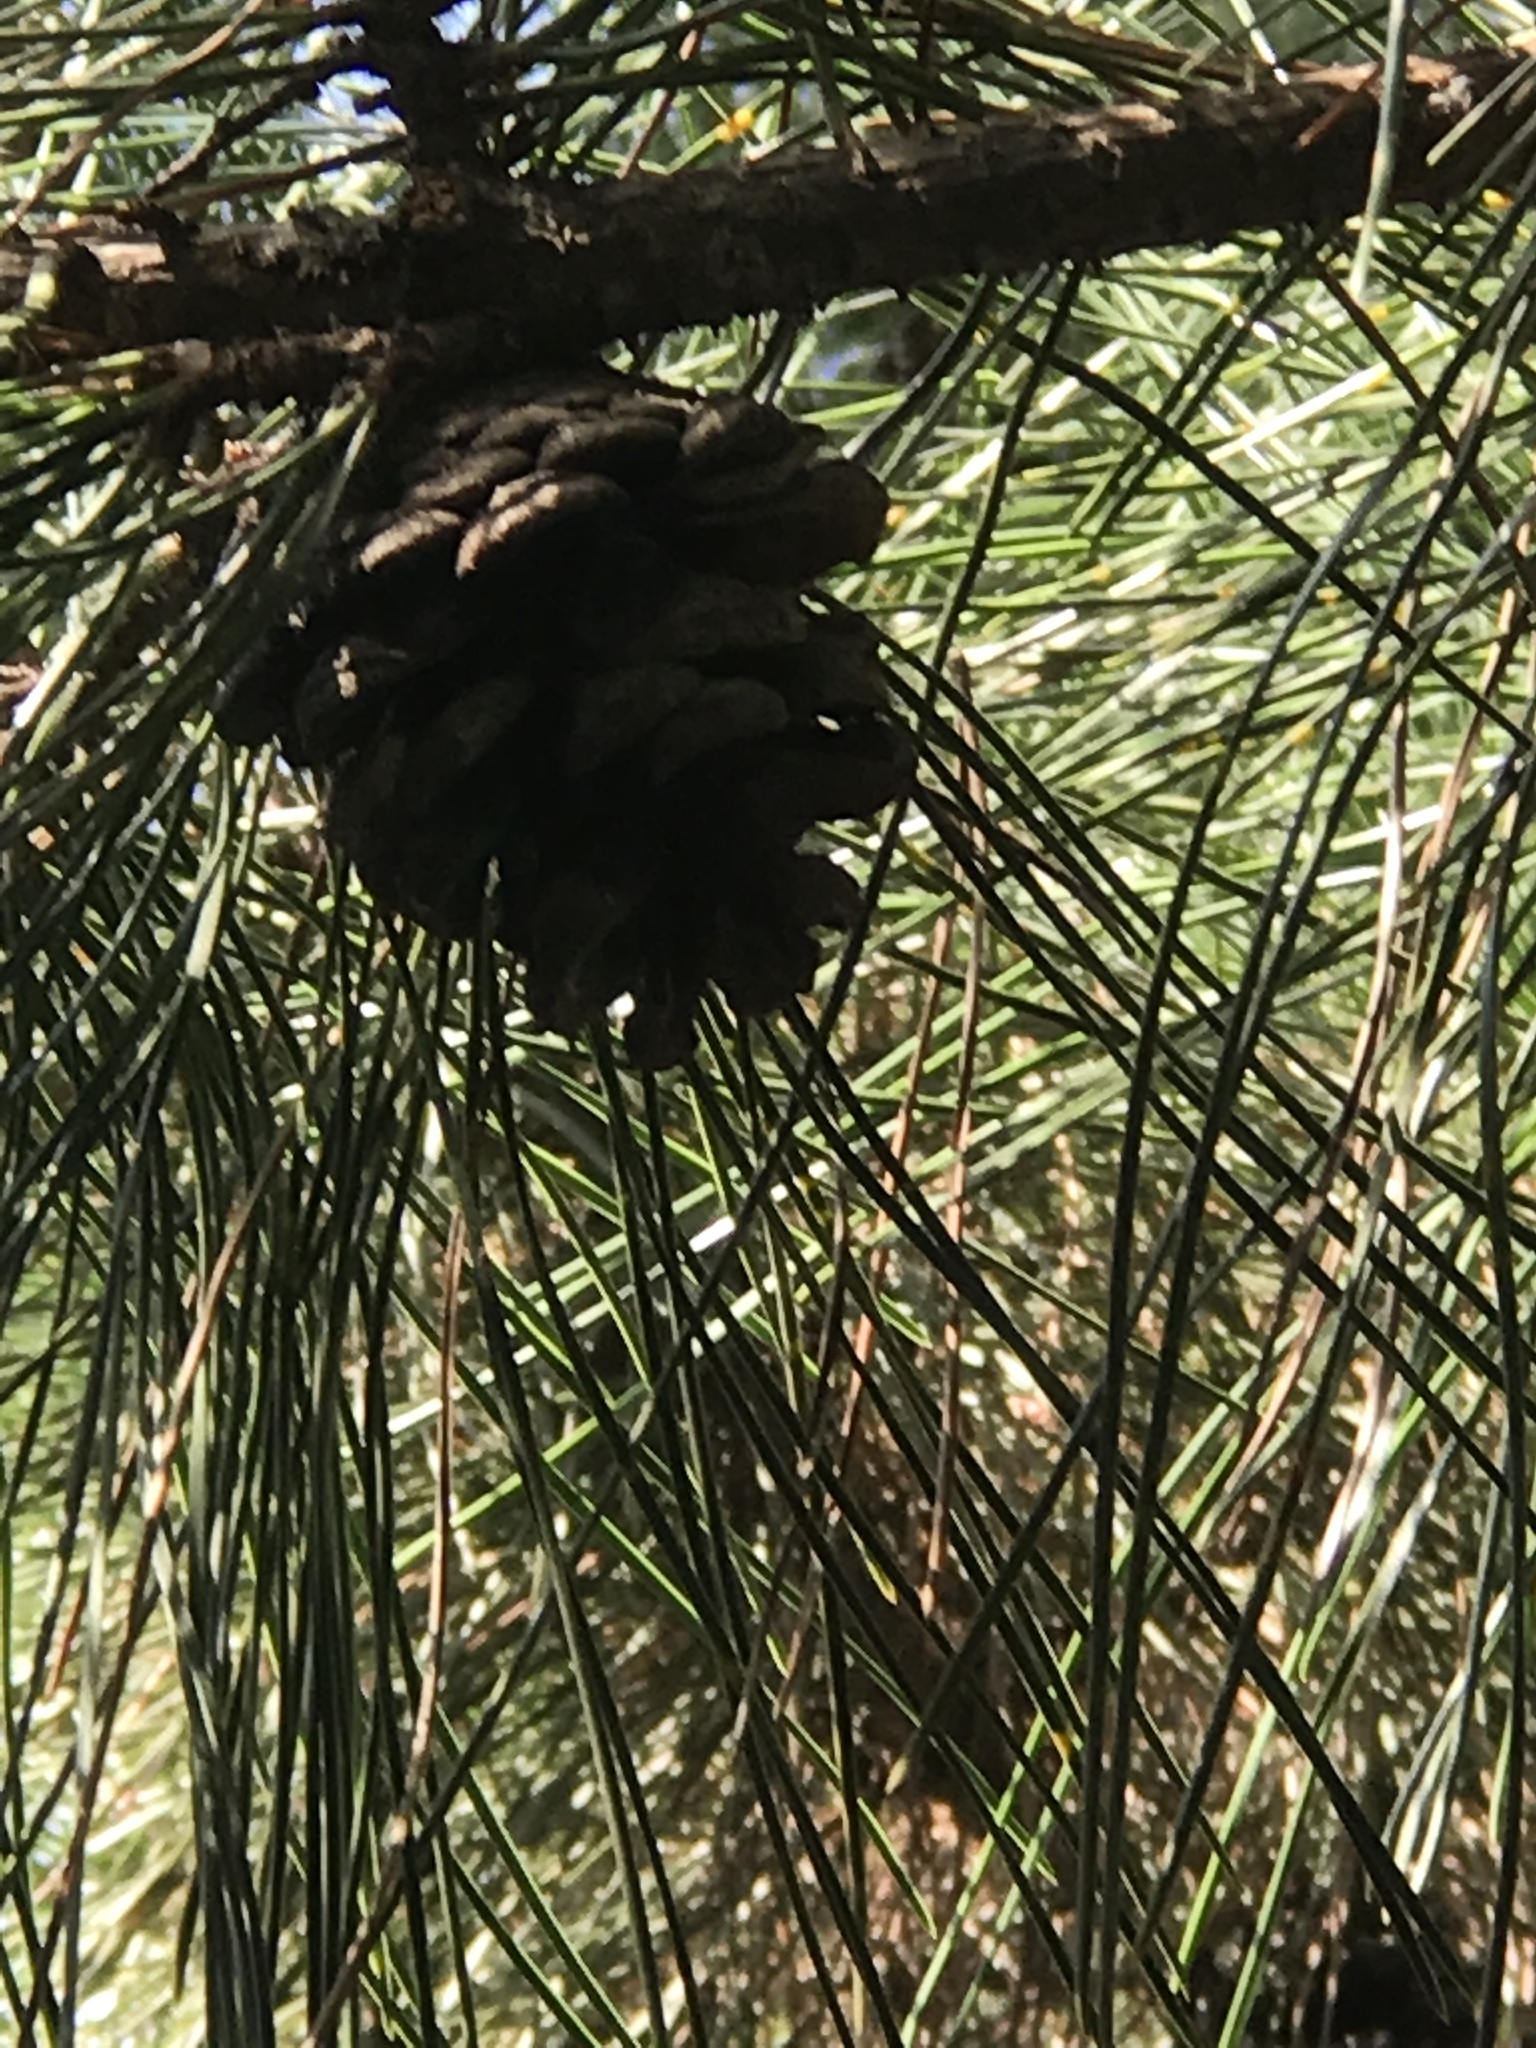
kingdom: Plantae
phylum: Tracheophyta
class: Pinopsida
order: Pinales
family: Pinaceae
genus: Pinus
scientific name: Pinus tabuliformis
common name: Chinese red pine
